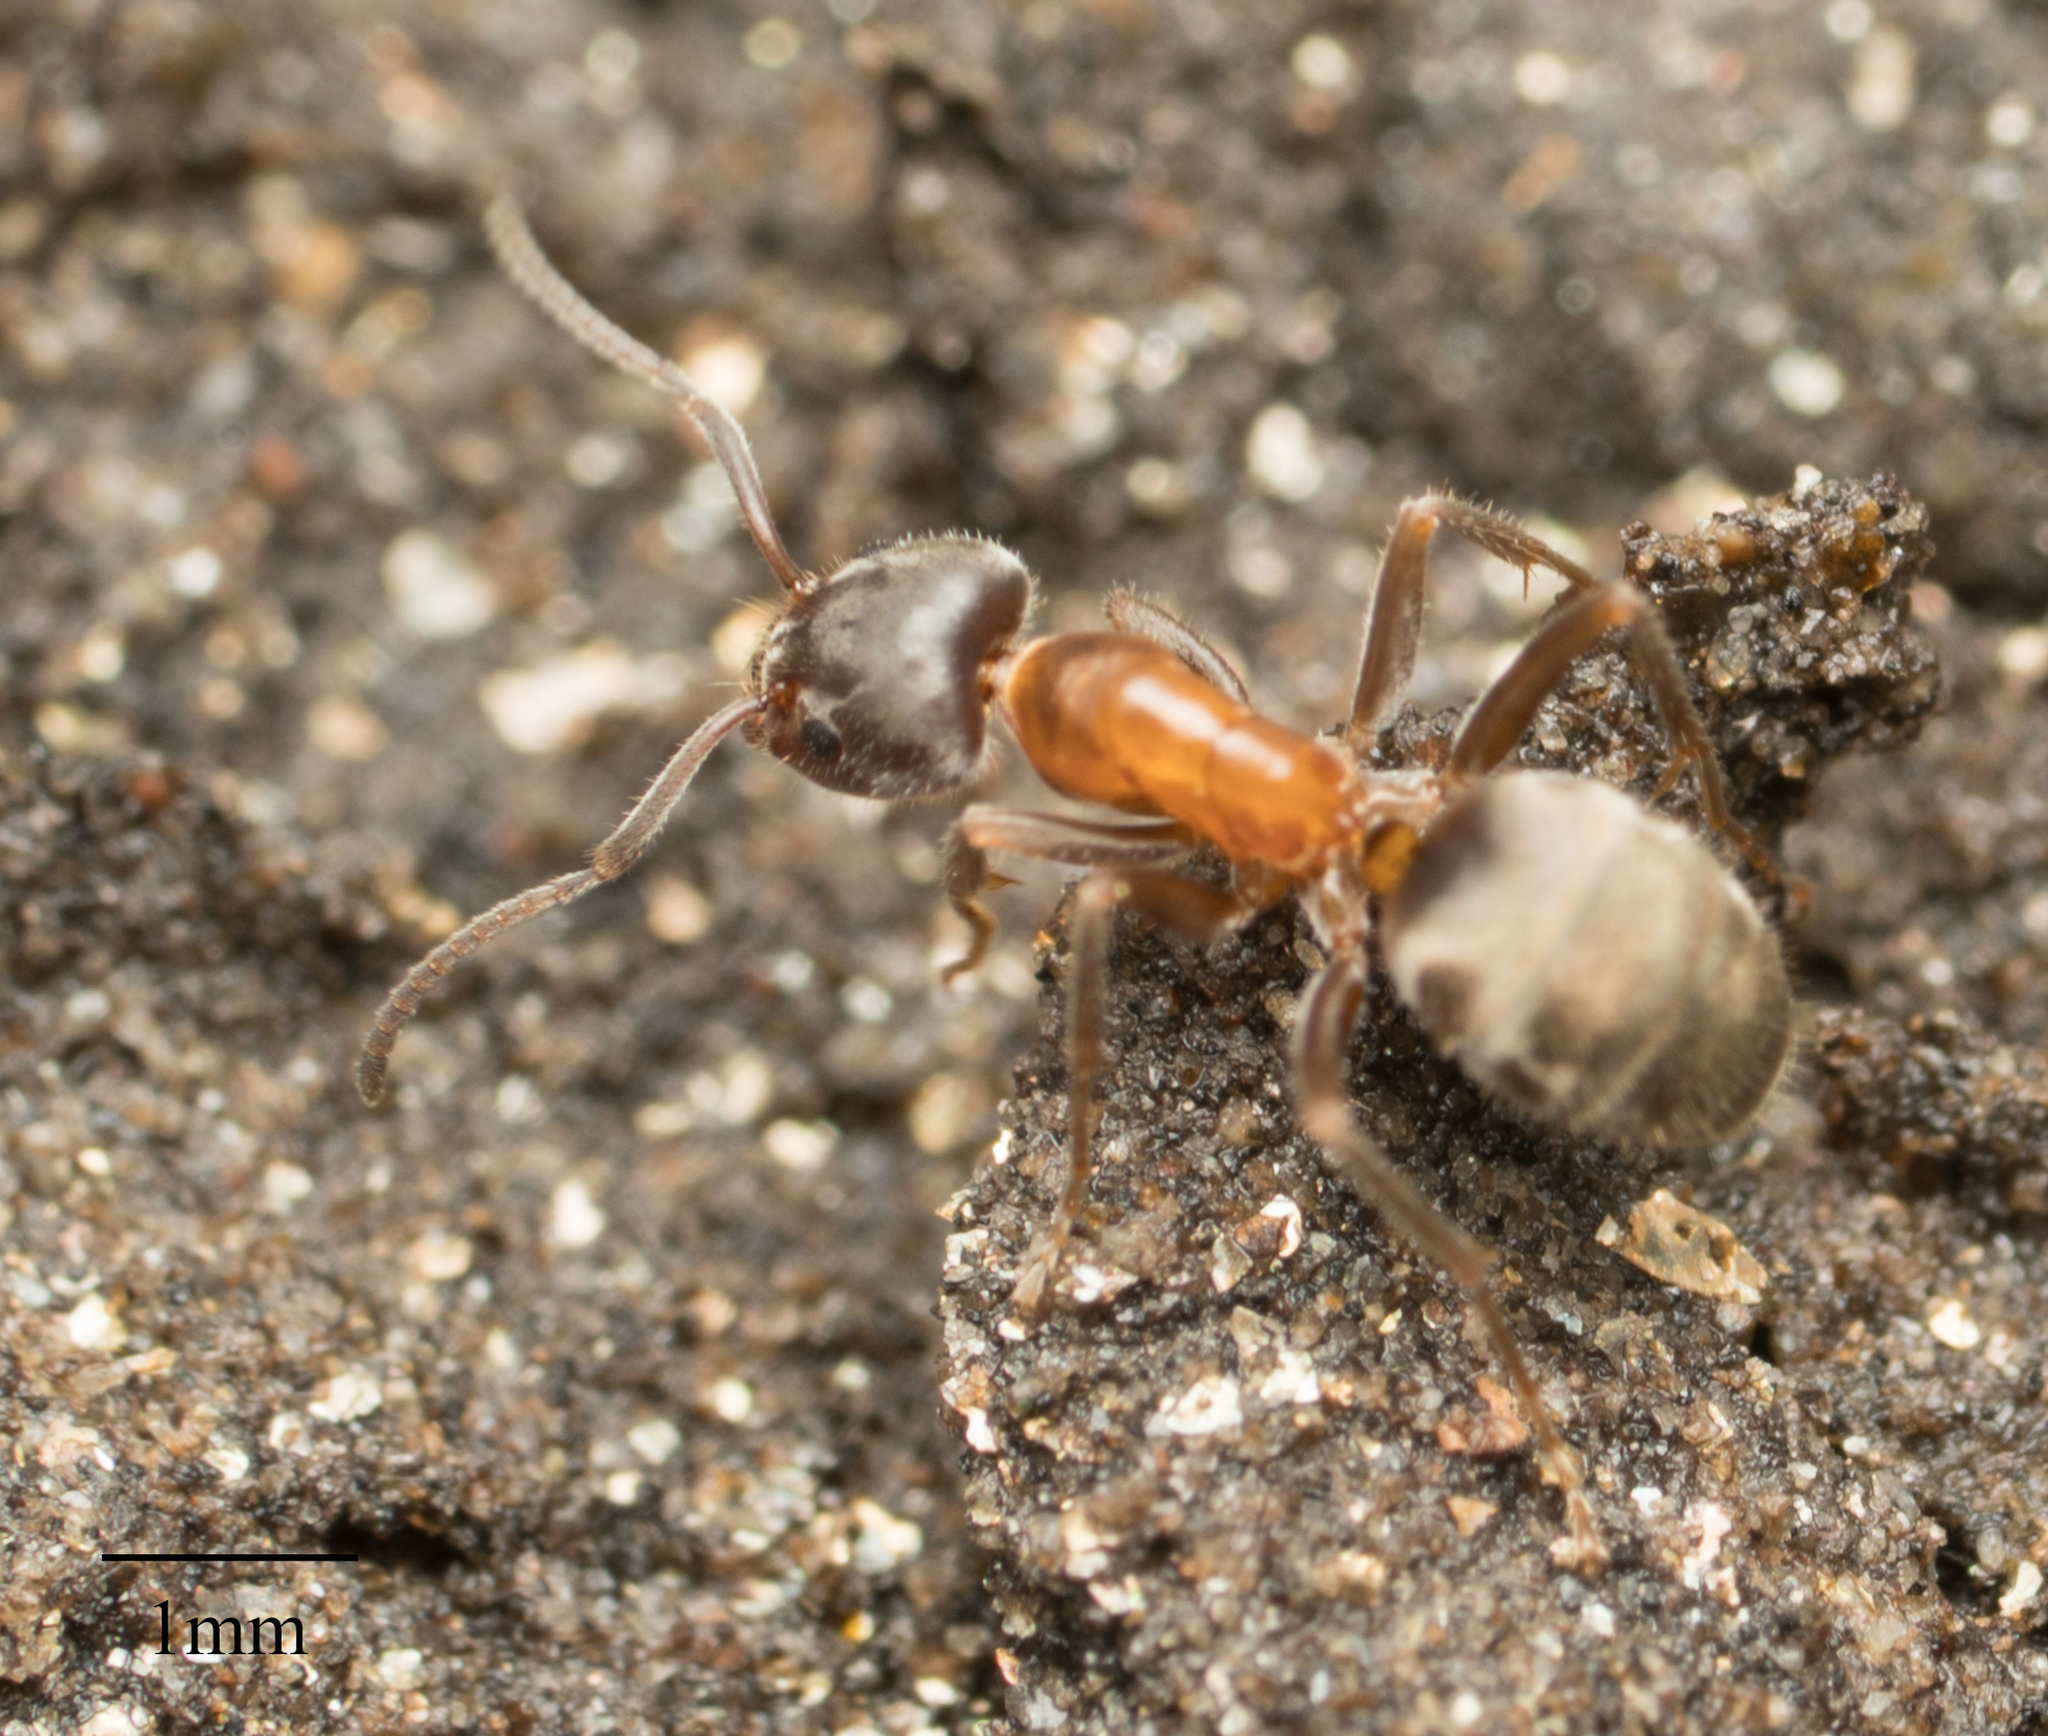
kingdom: Animalia
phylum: Arthropoda
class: Insecta
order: Hymenoptera
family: Formicidae
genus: Liometopum
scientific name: Liometopum occidentale
